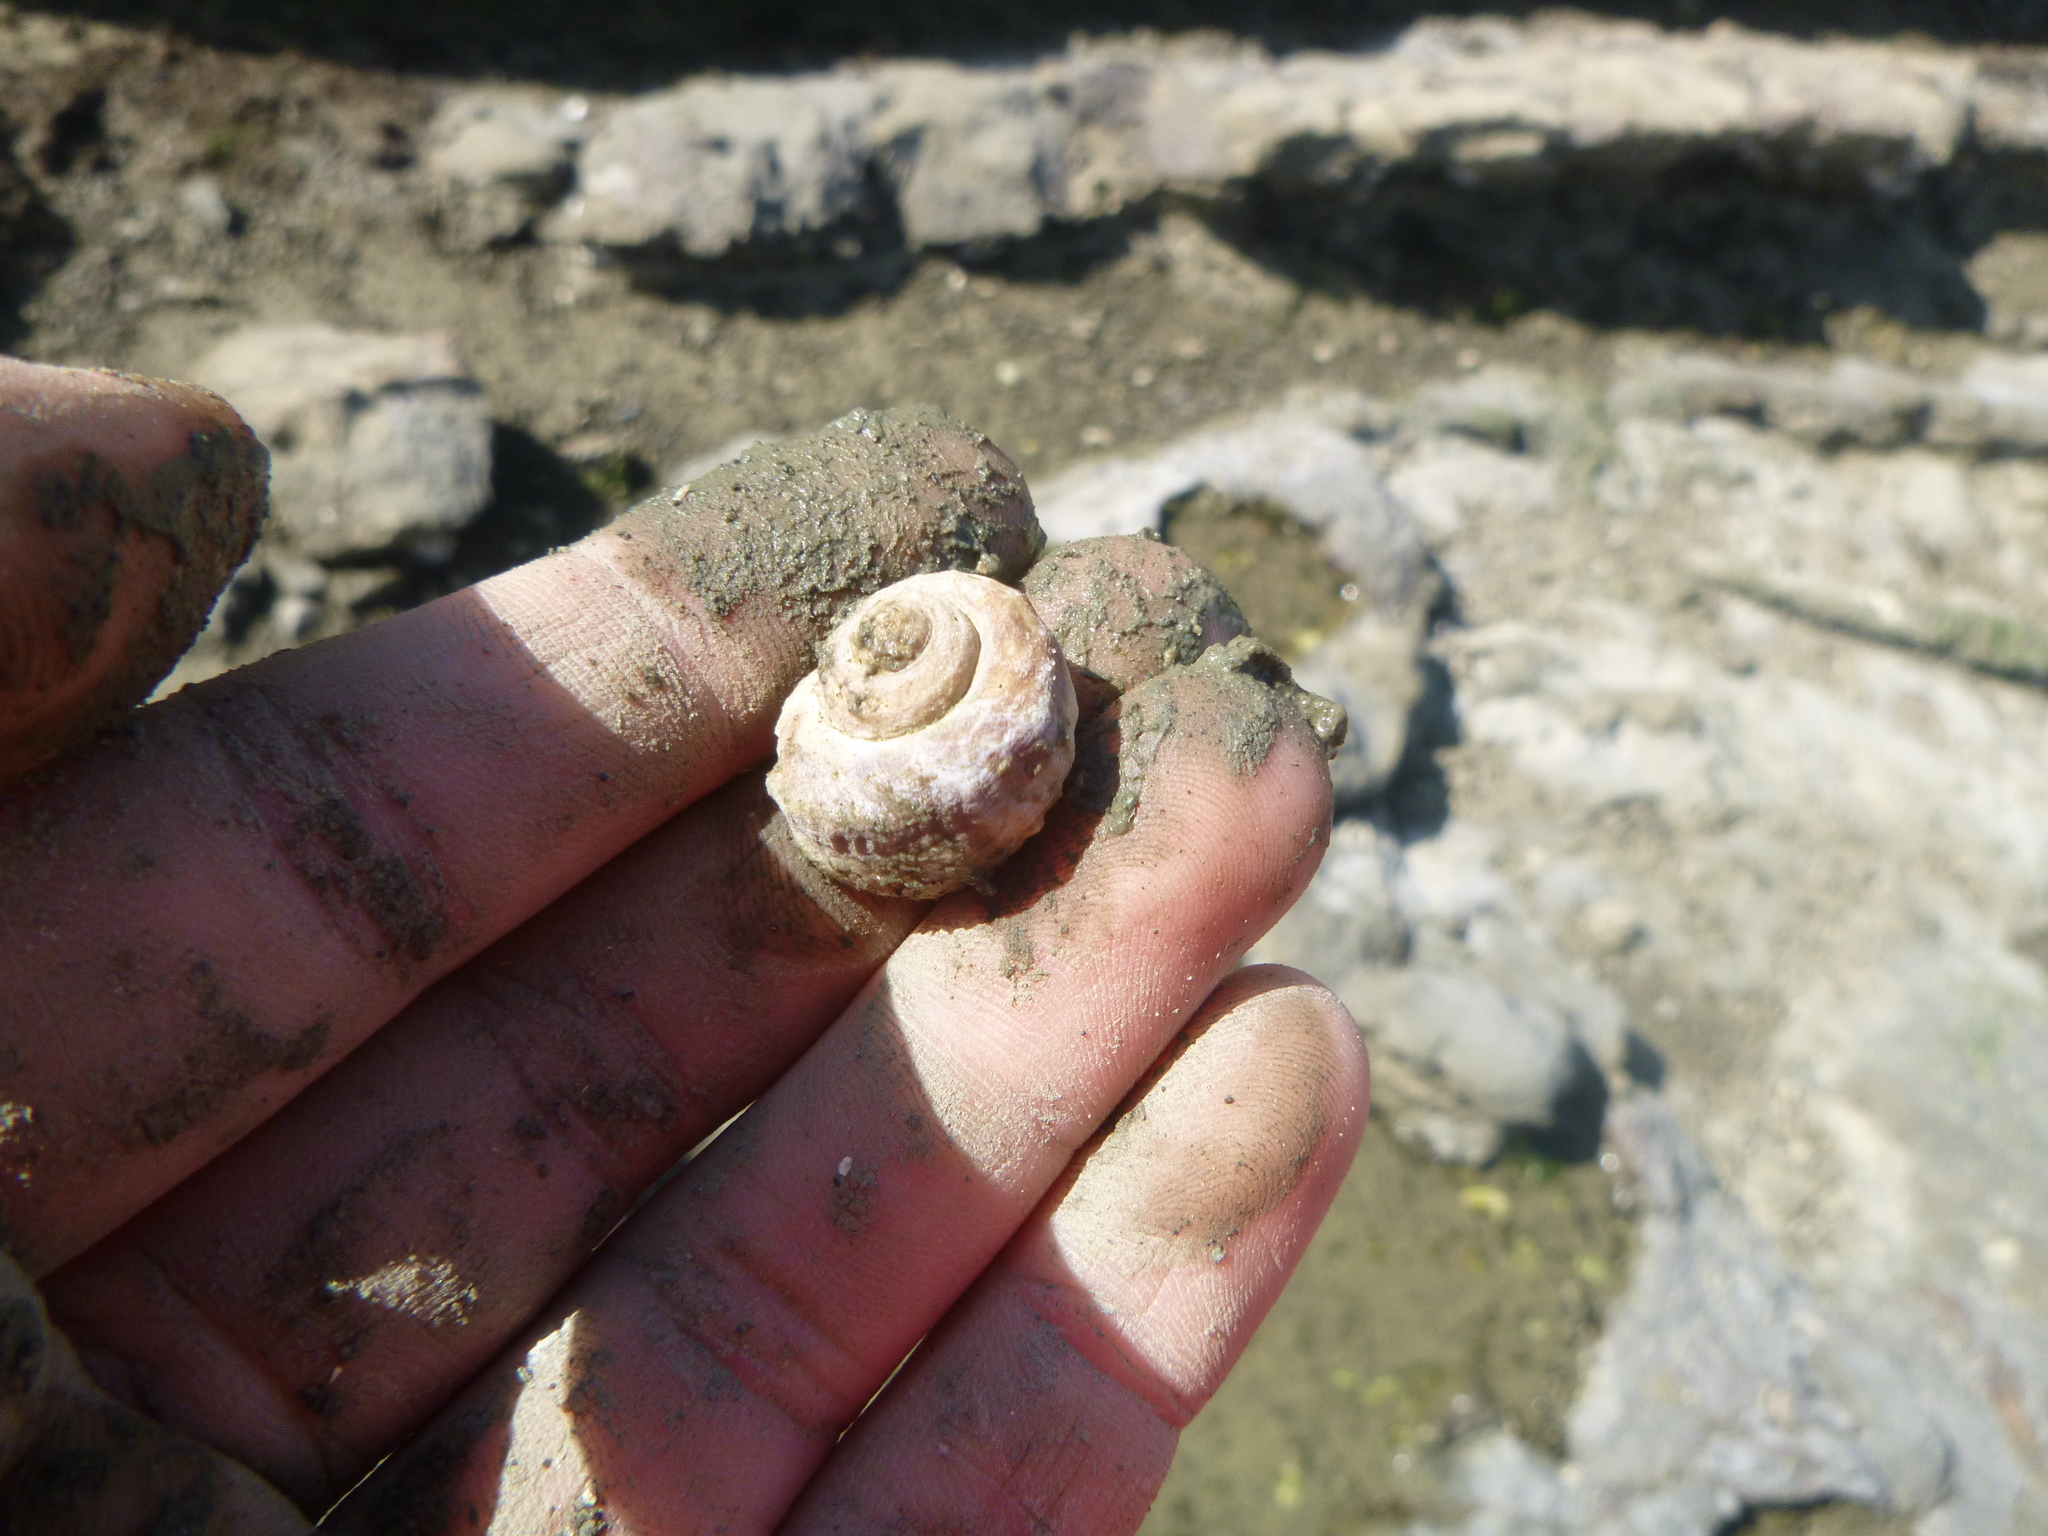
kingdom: Animalia
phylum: Mollusca
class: Gastropoda
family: Amphibolidae
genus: Amphibola
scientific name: Amphibola crenata
